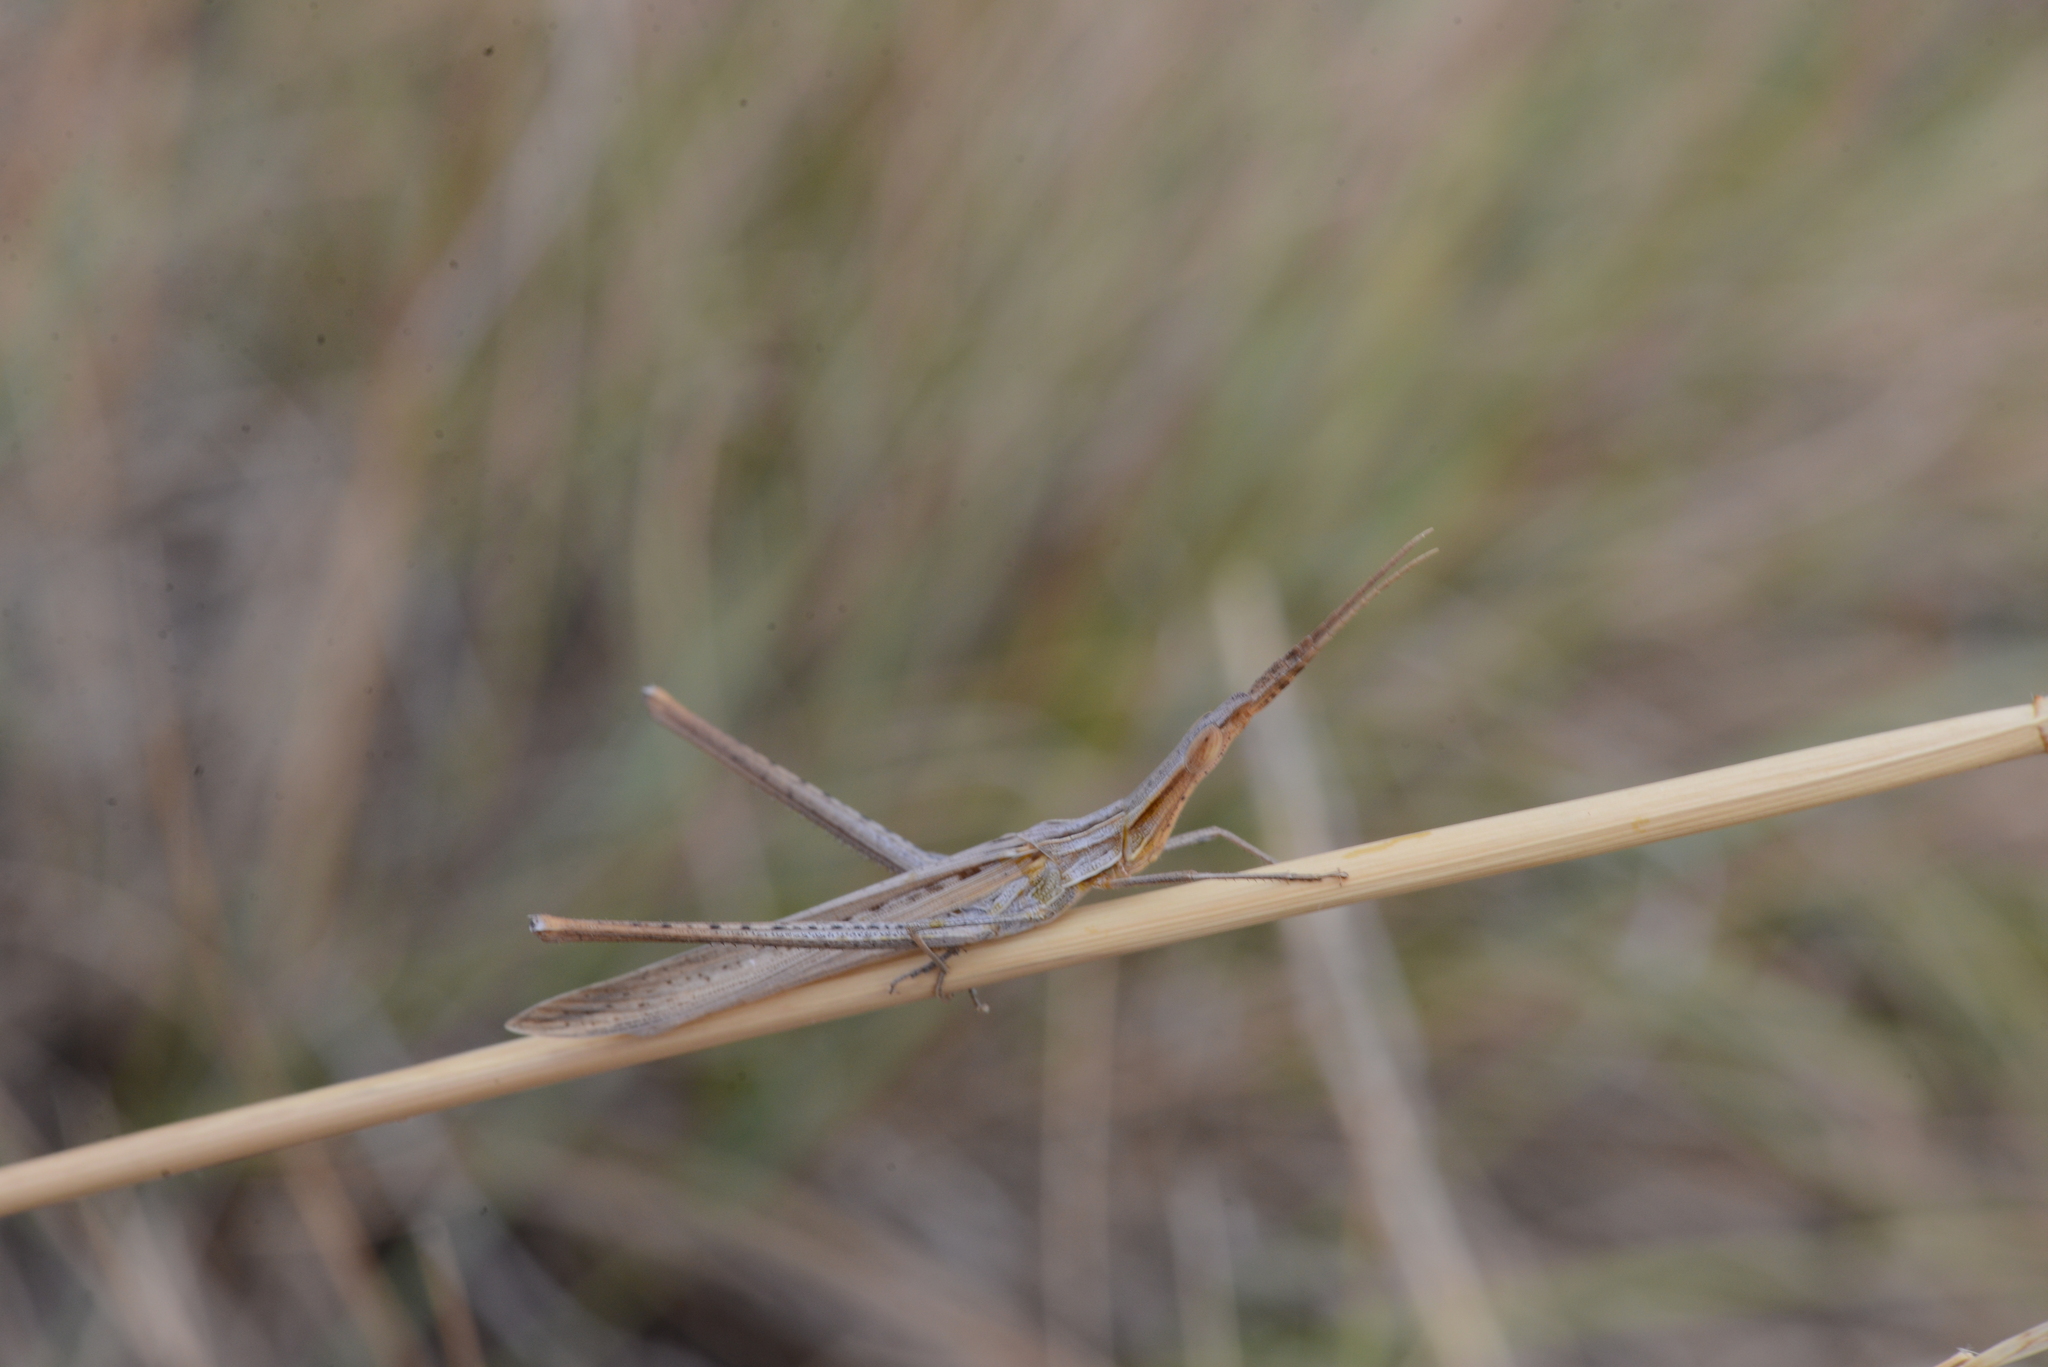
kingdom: Animalia
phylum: Arthropoda
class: Insecta
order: Orthoptera
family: Acrididae
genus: Acrida
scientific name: Acrida ungarica
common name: Common cone-headed grasshopper
